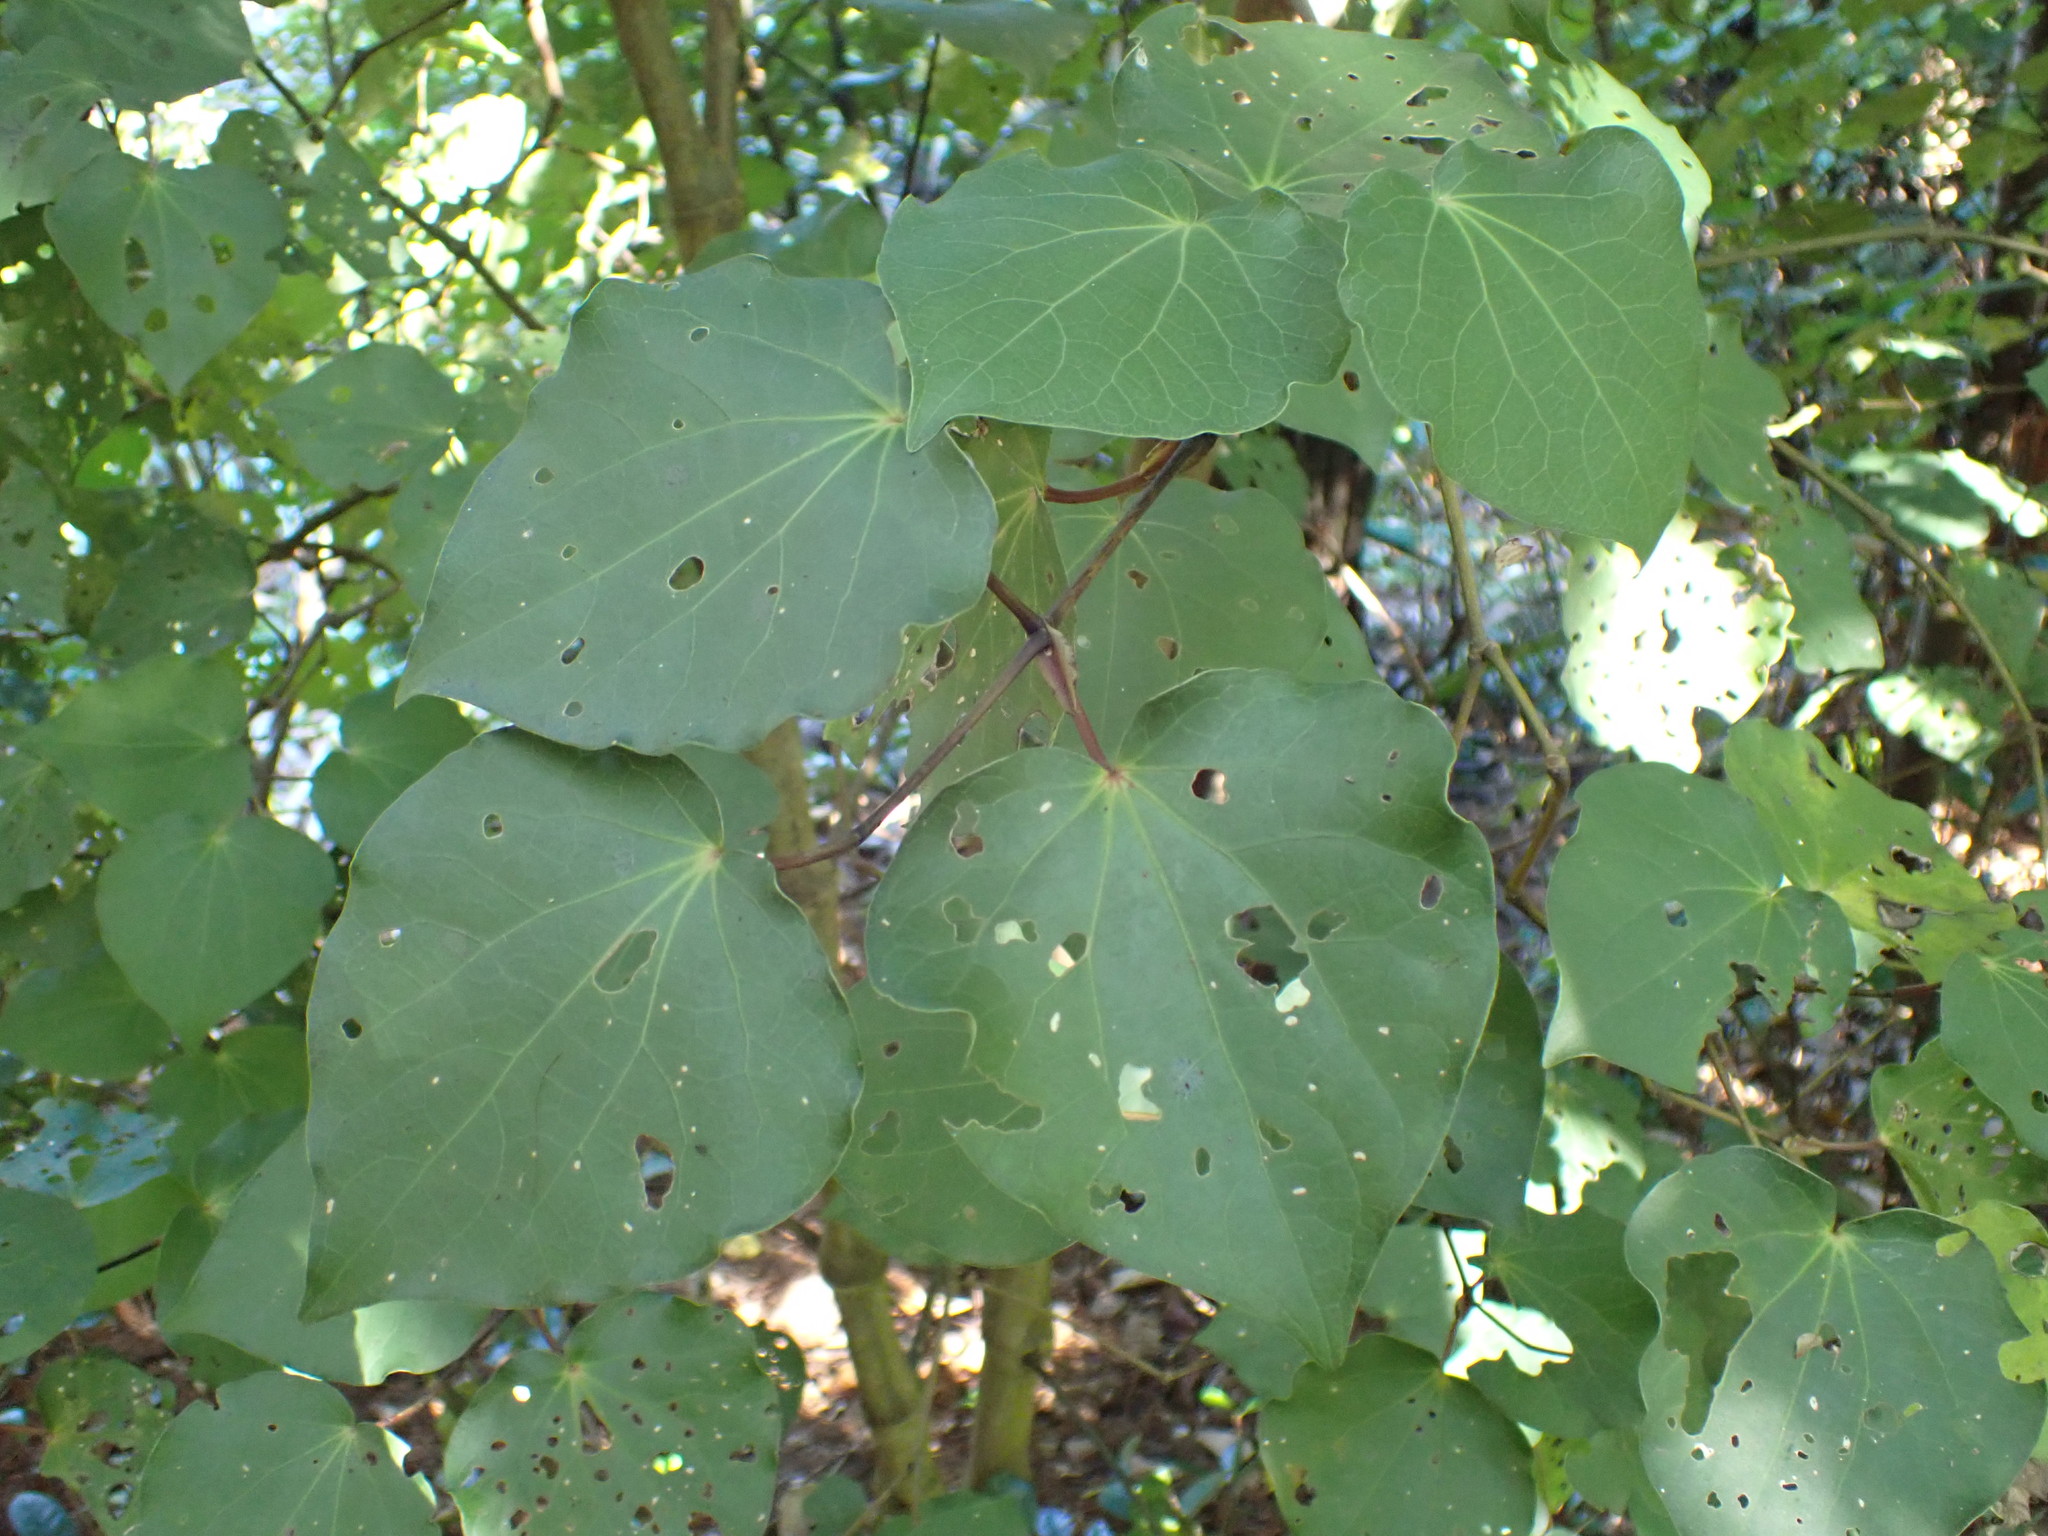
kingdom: Plantae
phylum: Tracheophyta
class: Magnoliopsida
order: Piperales
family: Piperaceae
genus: Macropiper
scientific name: Macropiper excelsum
